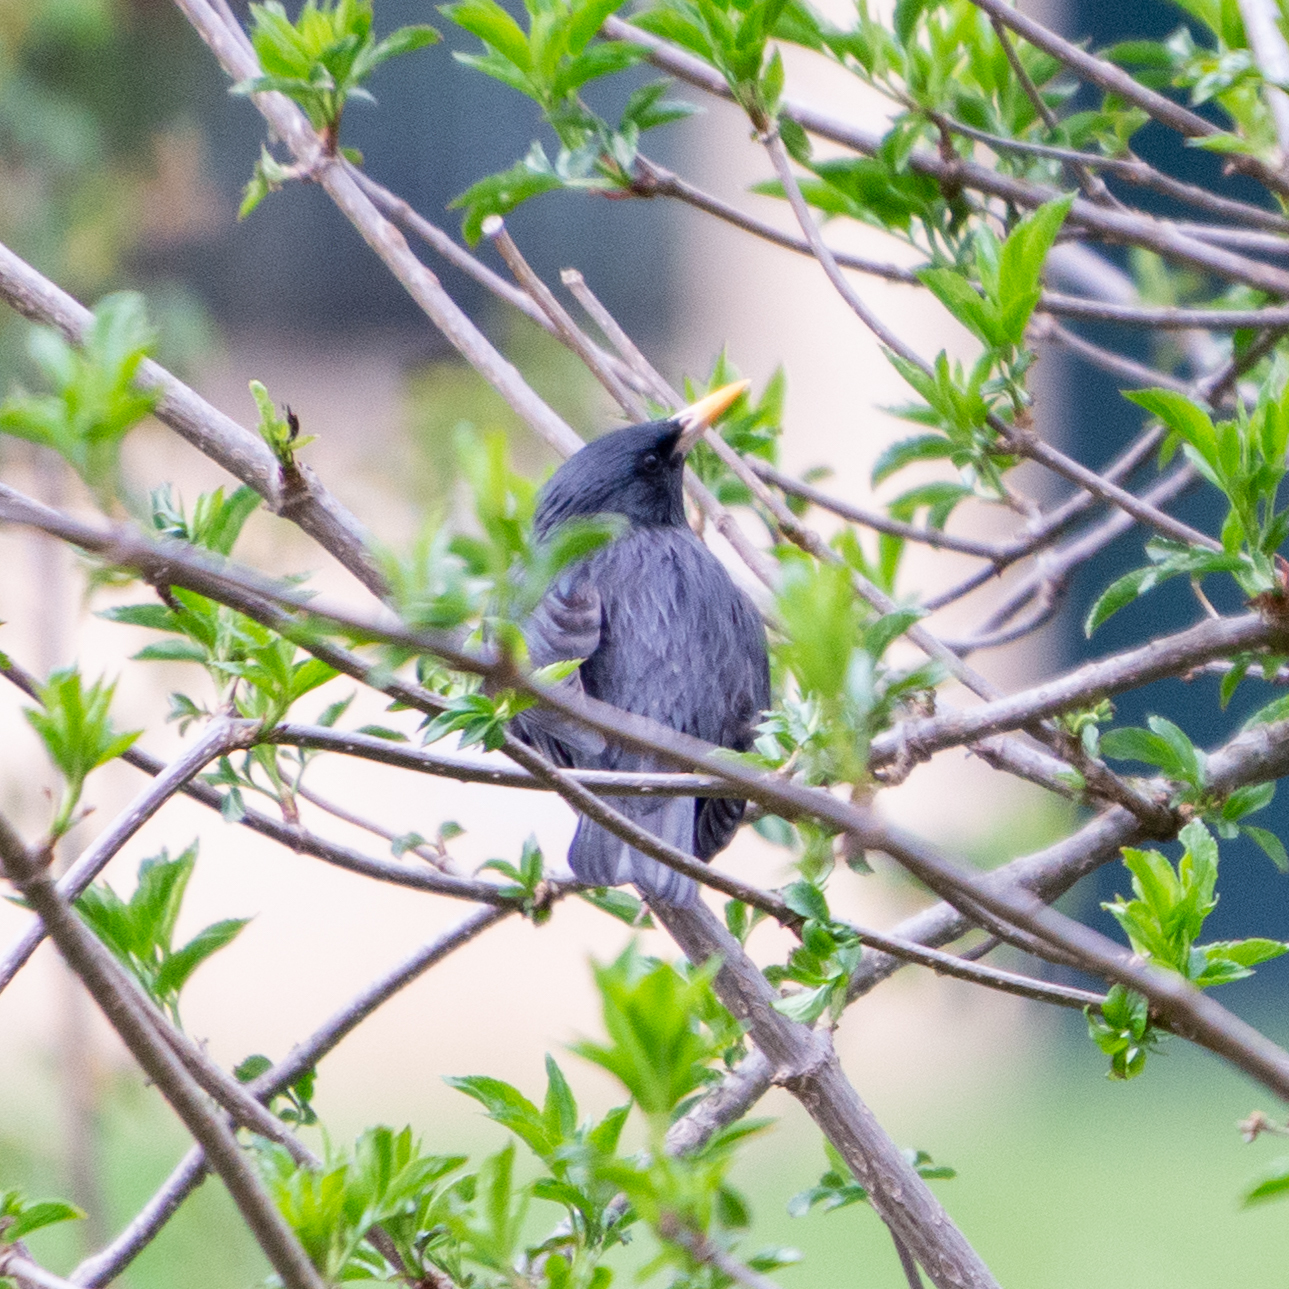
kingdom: Animalia
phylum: Chordata
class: Aves
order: Passeriformes
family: Sturnidae
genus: Sturnus
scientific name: Sturnus unicolor
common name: Spotless starling
